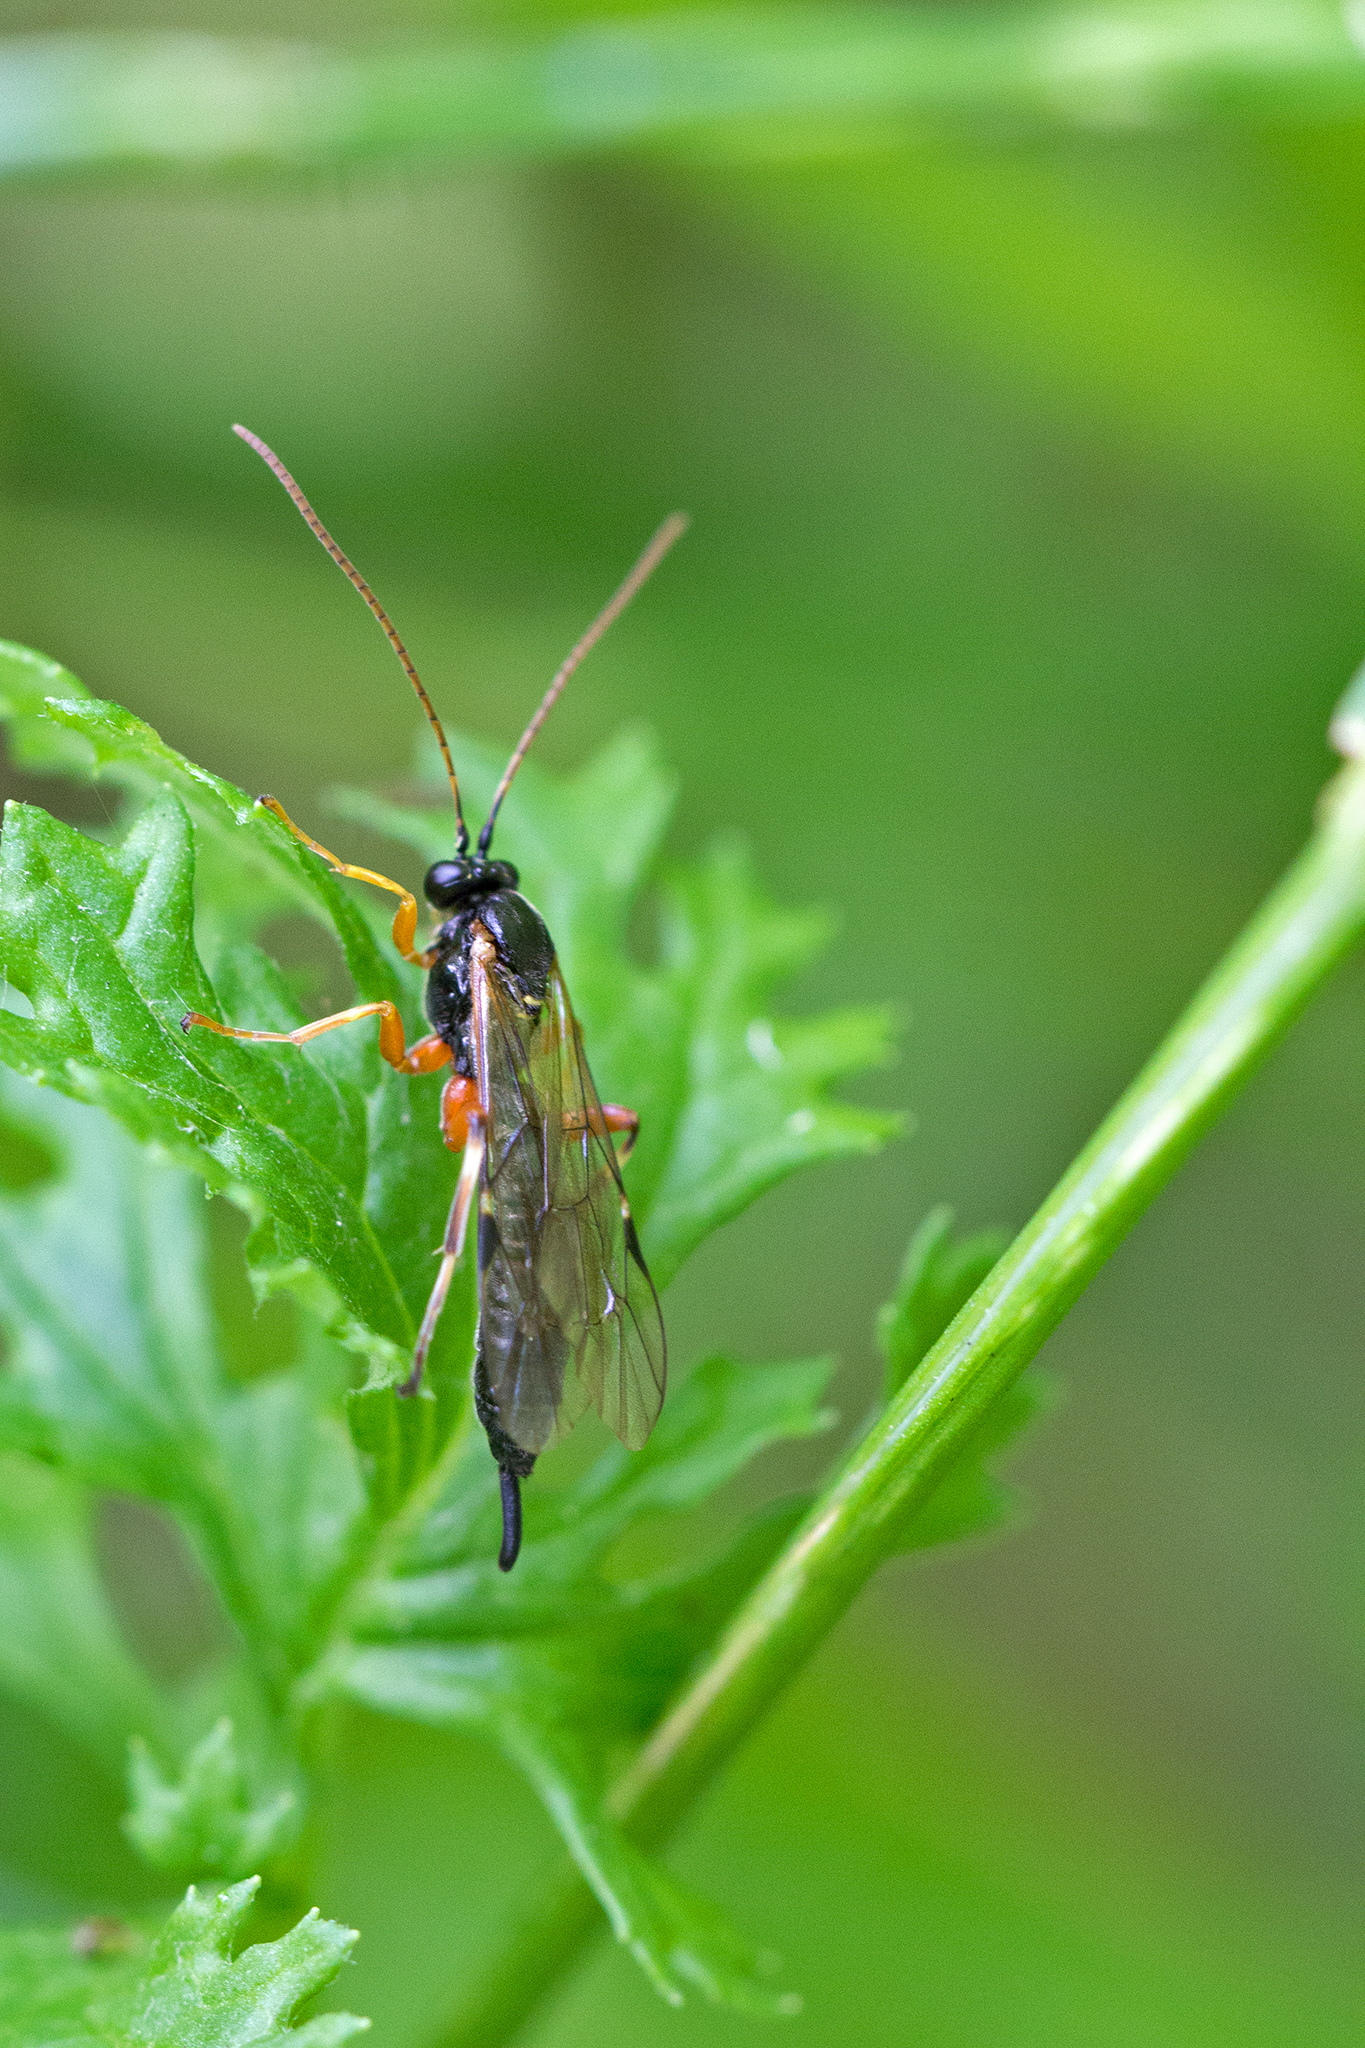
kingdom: Animalia
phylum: Arthropoda
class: Insecta
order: Hymenoptera
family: Ichneumonidae
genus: Apechthis
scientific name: Apechthis quadridentata
